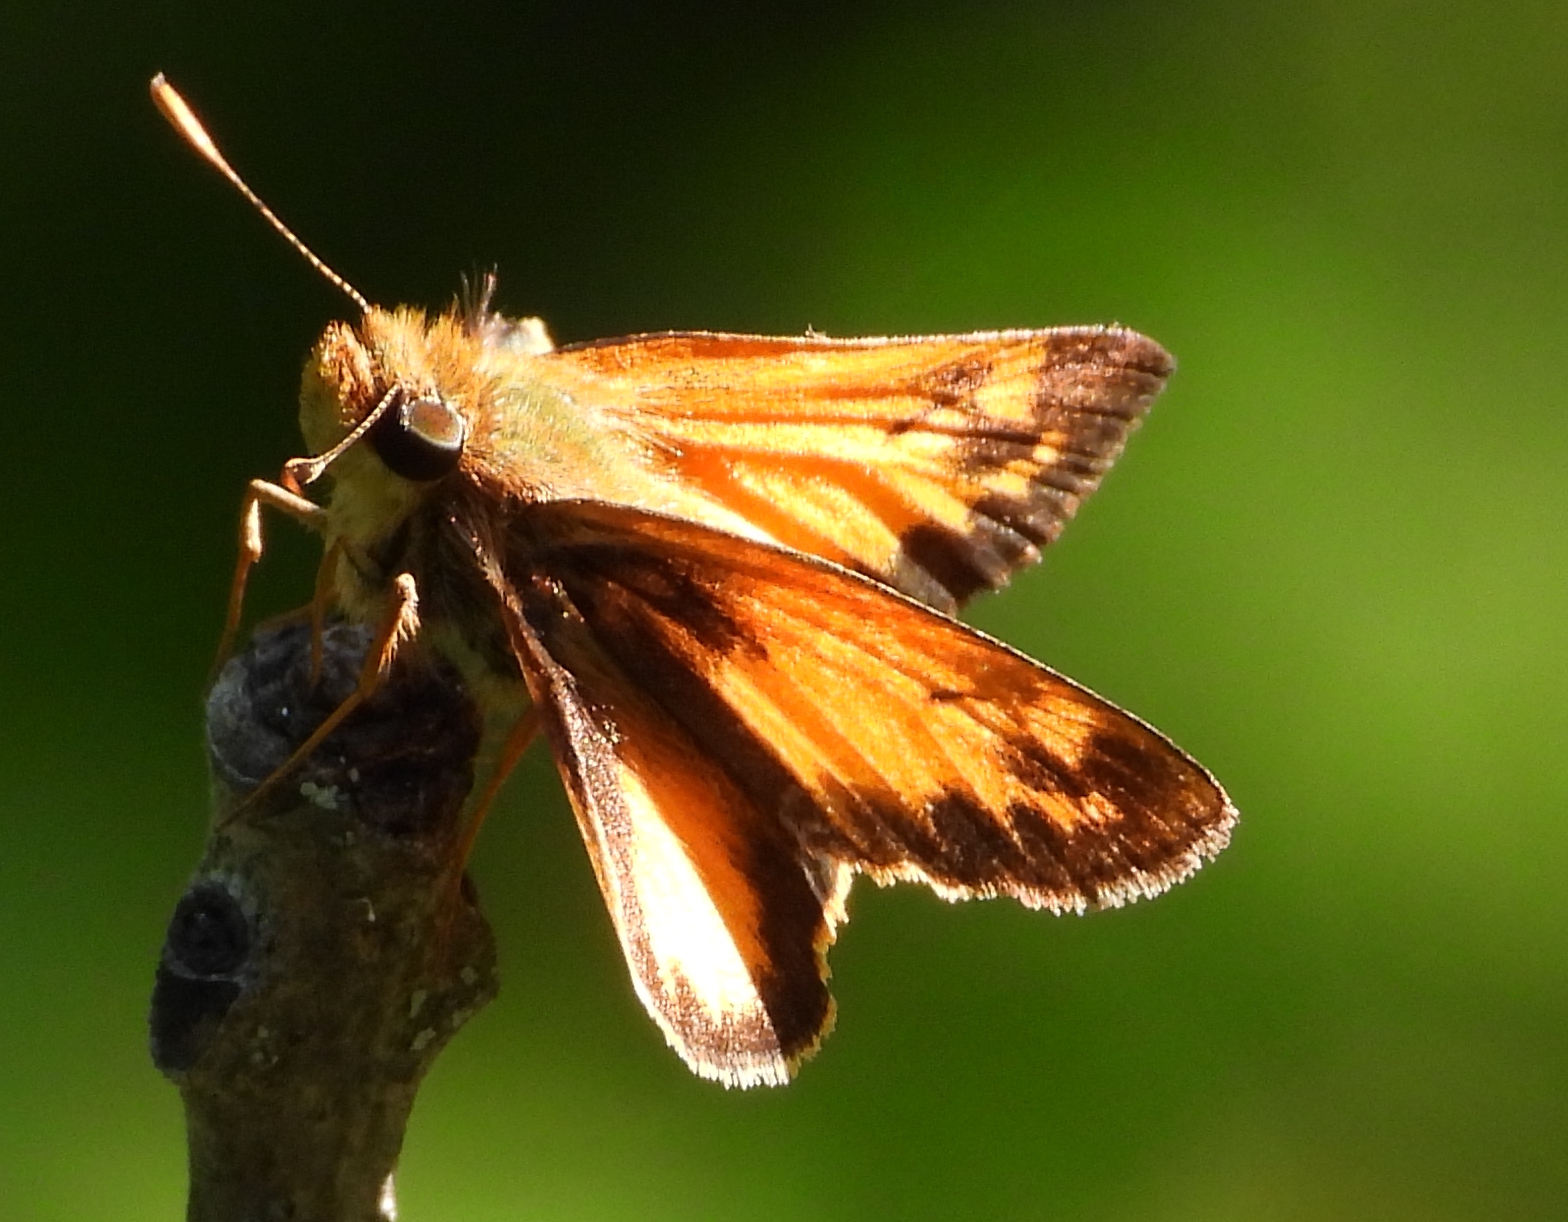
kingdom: Animalia
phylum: Arthropoda
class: Insecta
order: Lepidoptera
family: Hesperiidae
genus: Lon
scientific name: Lon zabulon
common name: Zabulon skipper
